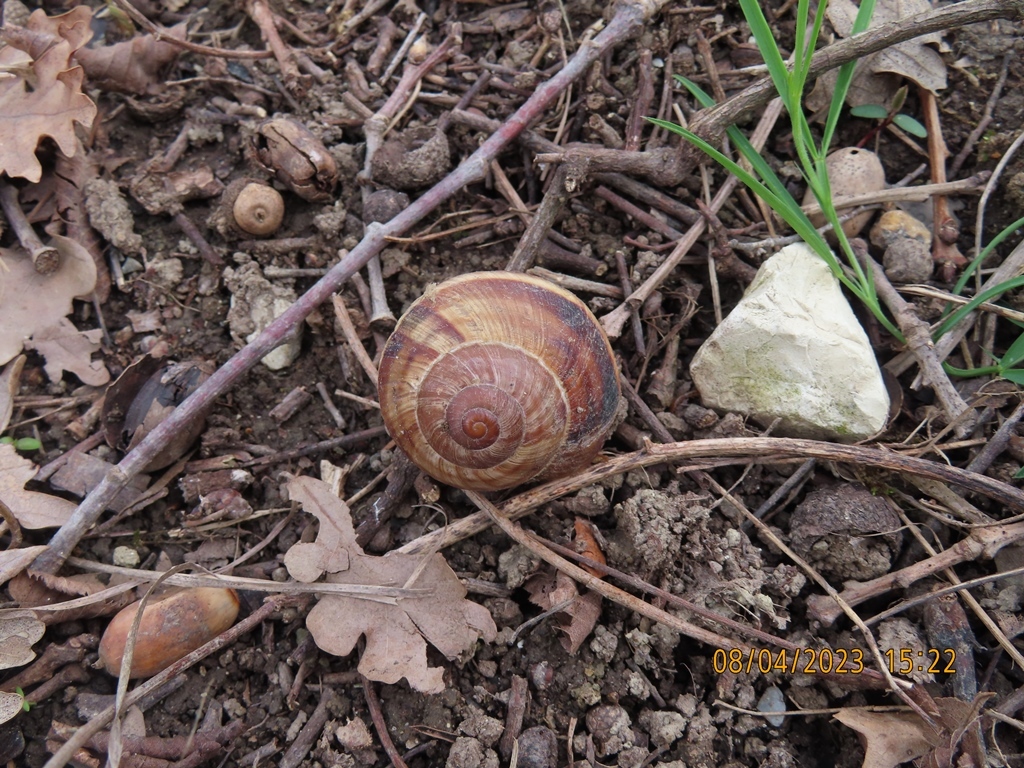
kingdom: Animalia
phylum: Mollusca
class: Gastropoda
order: Stylommatophora
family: Helicidae
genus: Helix
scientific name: Helix lucorum
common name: Turkish snail
